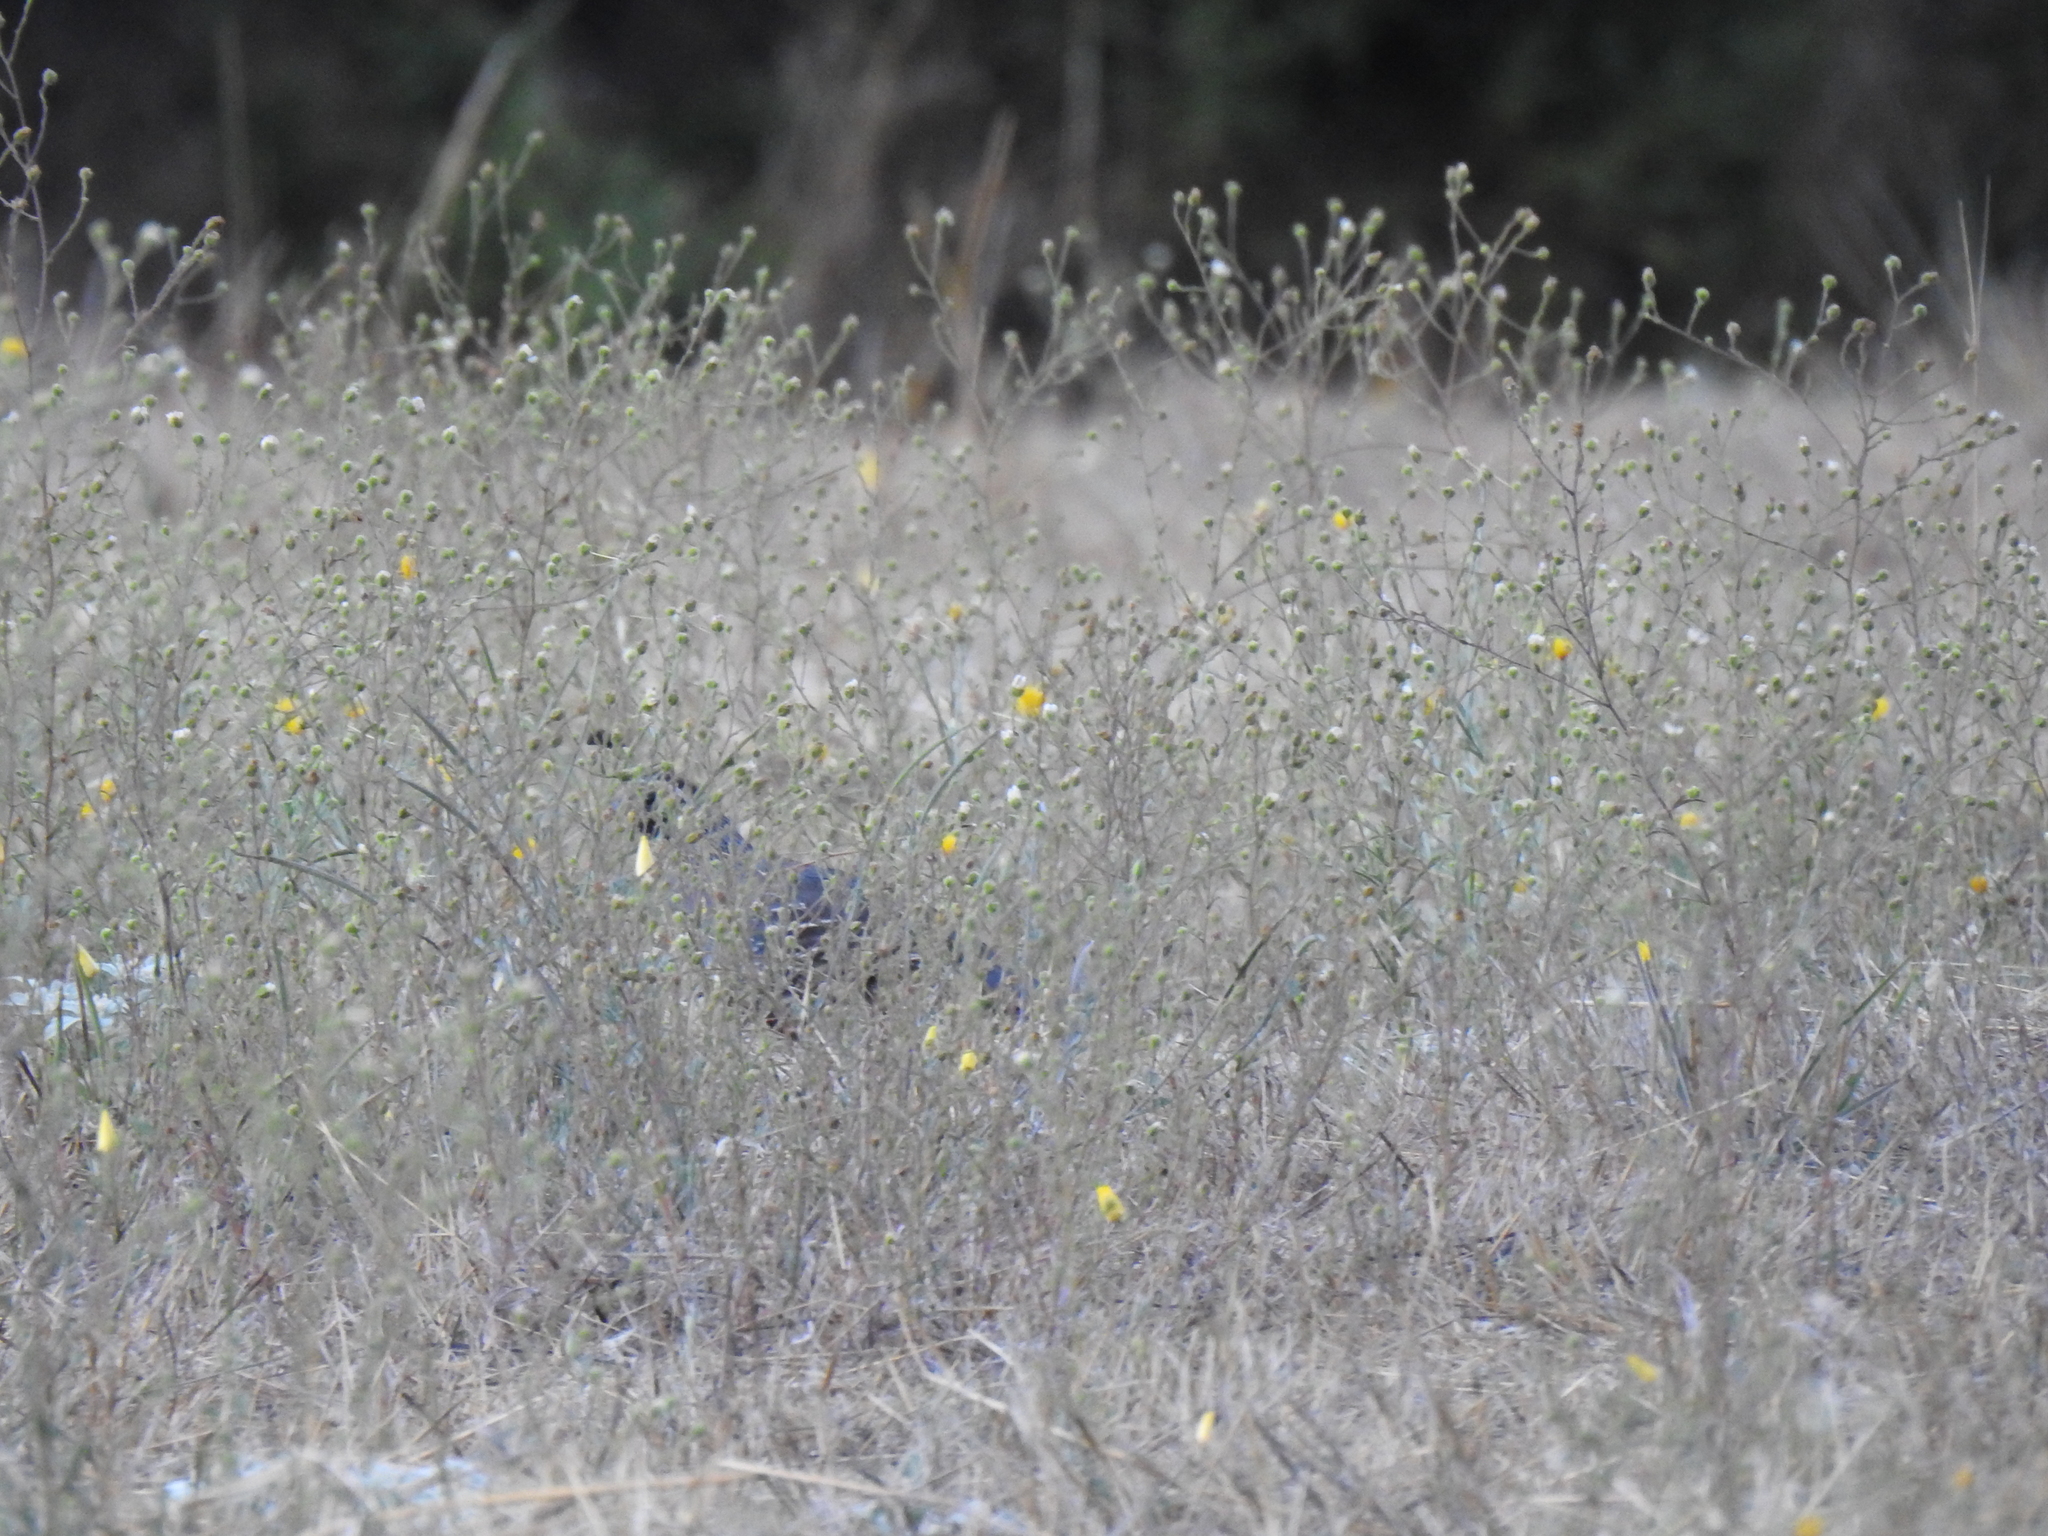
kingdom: Animalia
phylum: Chordata
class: Aves
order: Galliformes
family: Odontophoridae
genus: Callipepla
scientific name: Callipepla californica
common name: California quail
